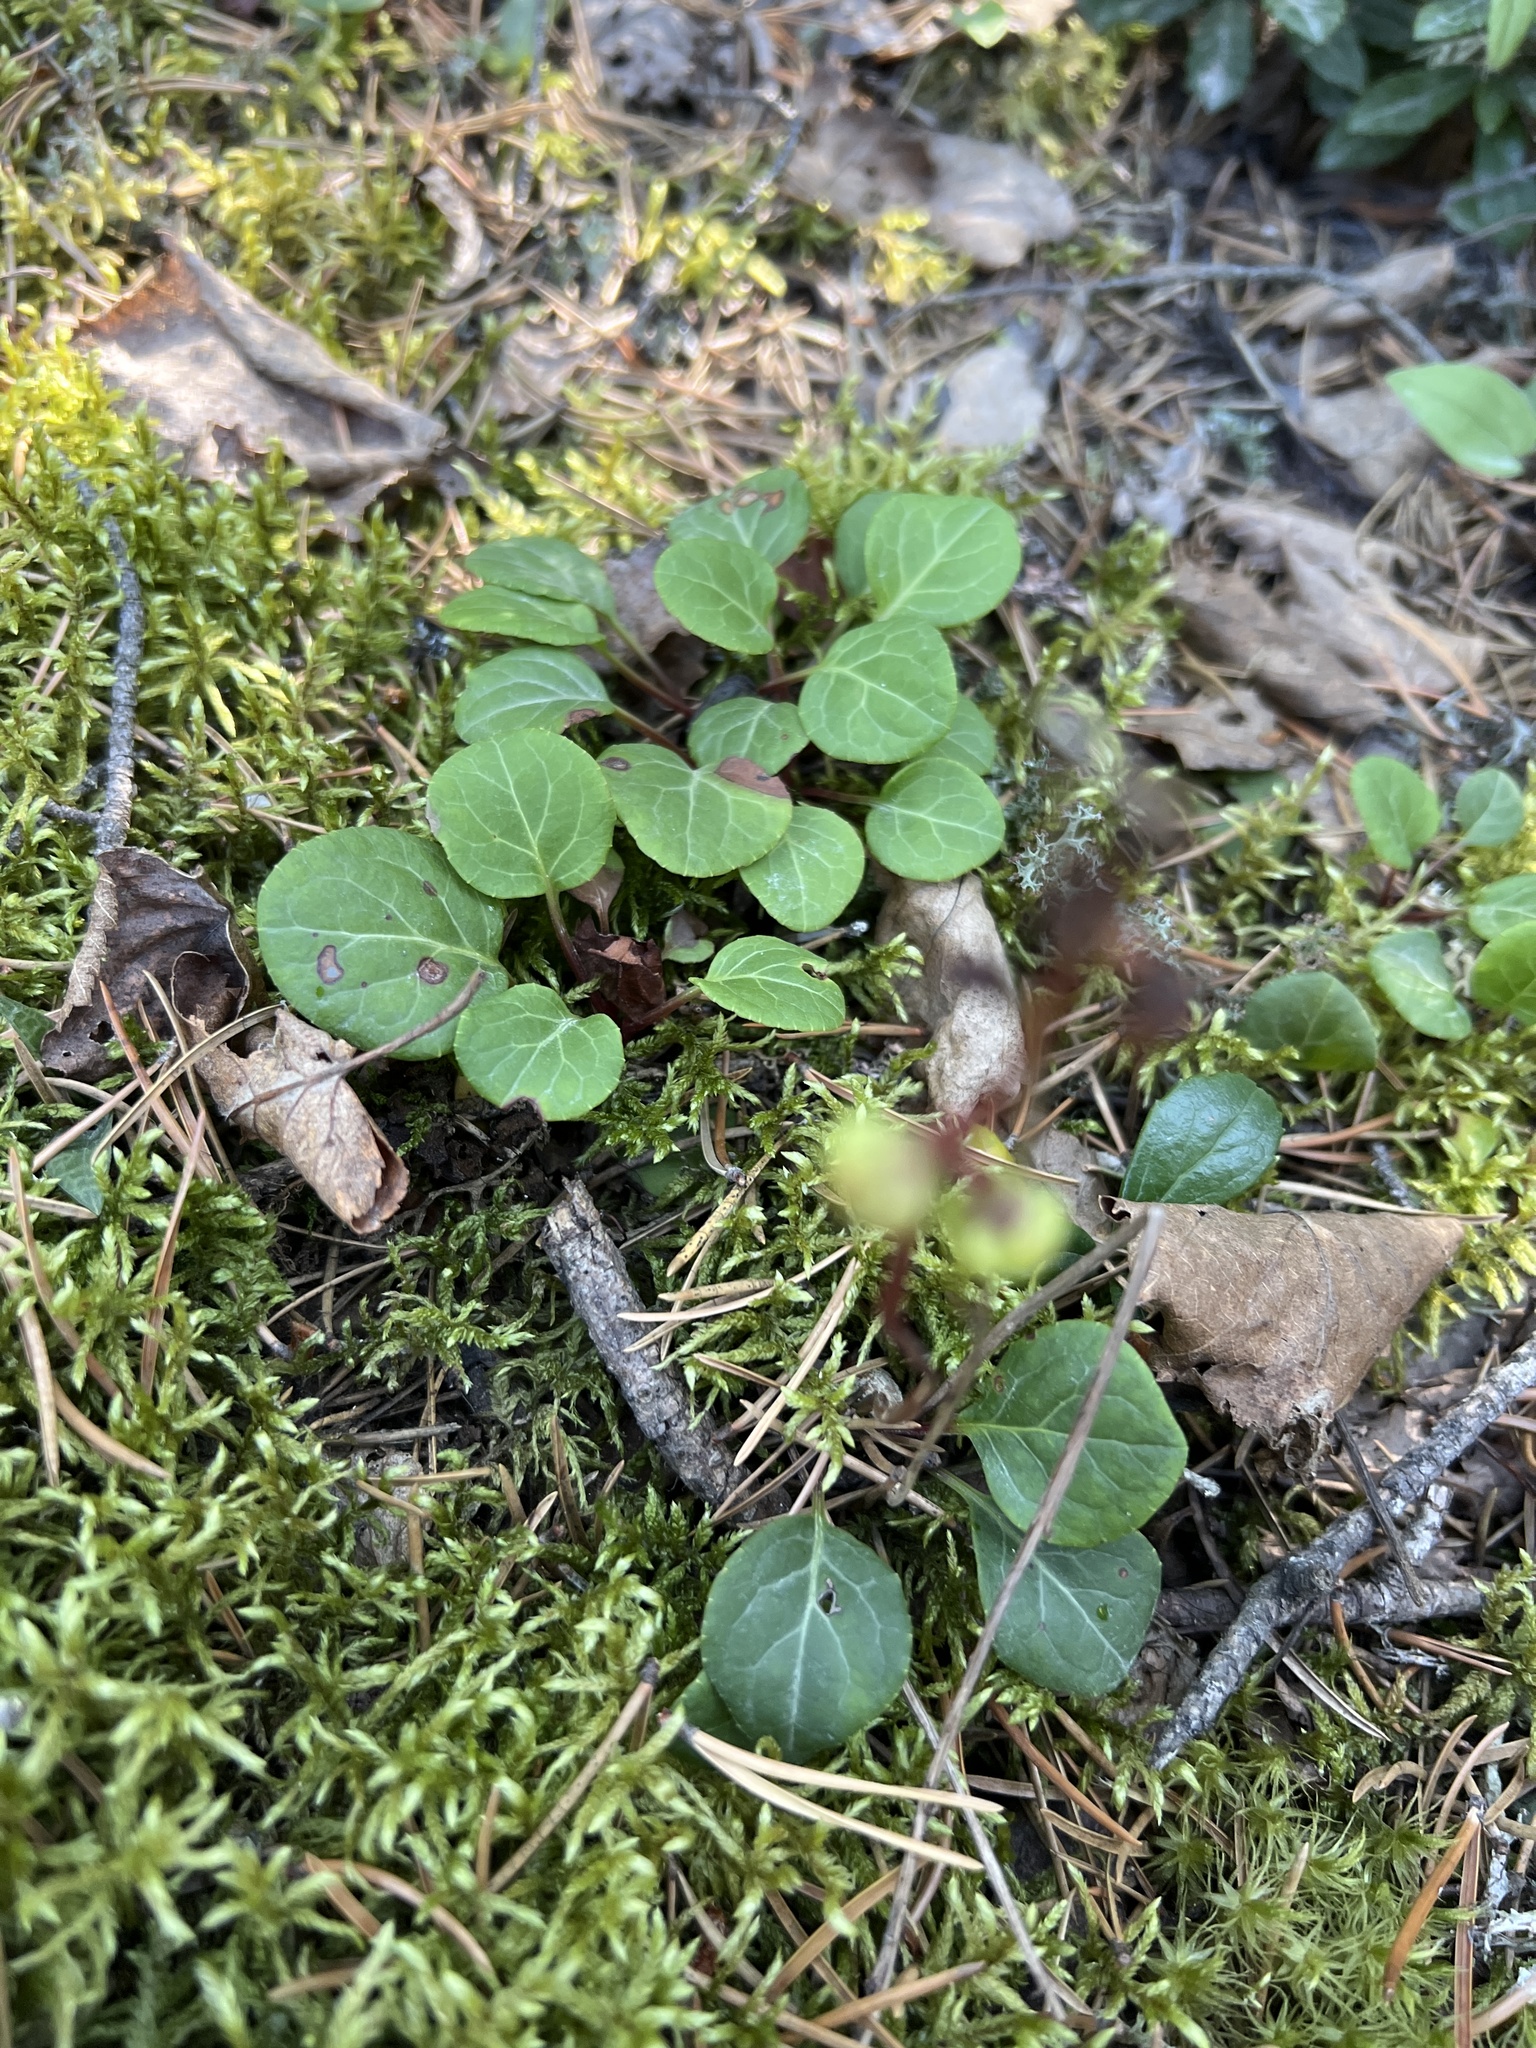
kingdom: Plantae
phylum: Tracheophyta
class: Magnoliopsida
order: Ericales
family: Ericaceae
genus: Pyrola
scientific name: Pyrola chlorantha
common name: Green wintergreen
